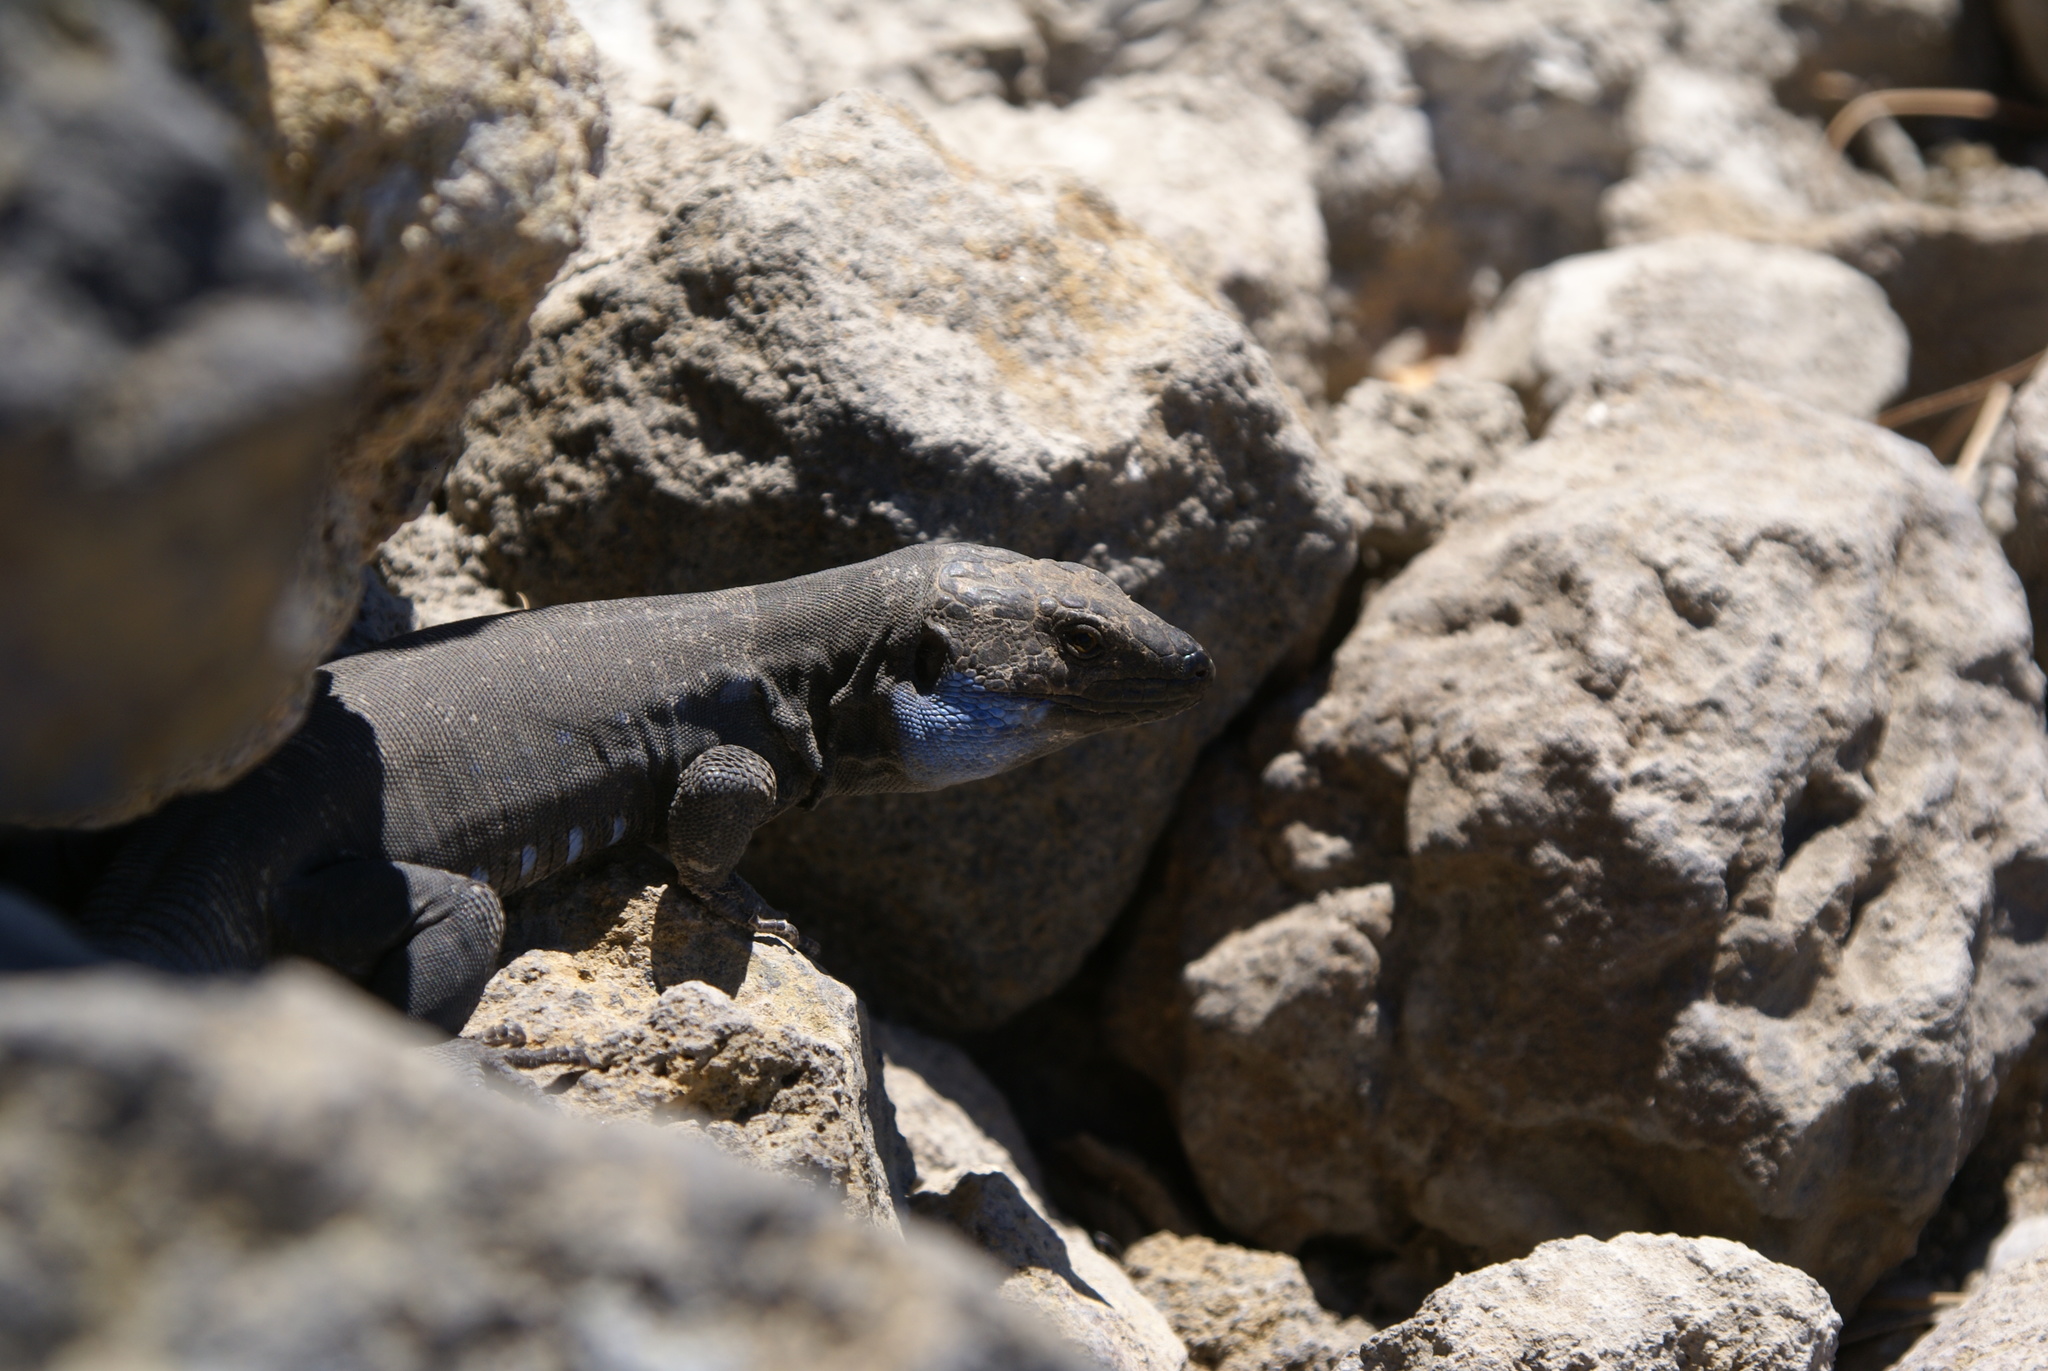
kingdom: Animalia
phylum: Chordata
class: Squamata
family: Lacertidae
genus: Gallotia
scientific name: Gallotia galloti
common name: Gallot's lizard
